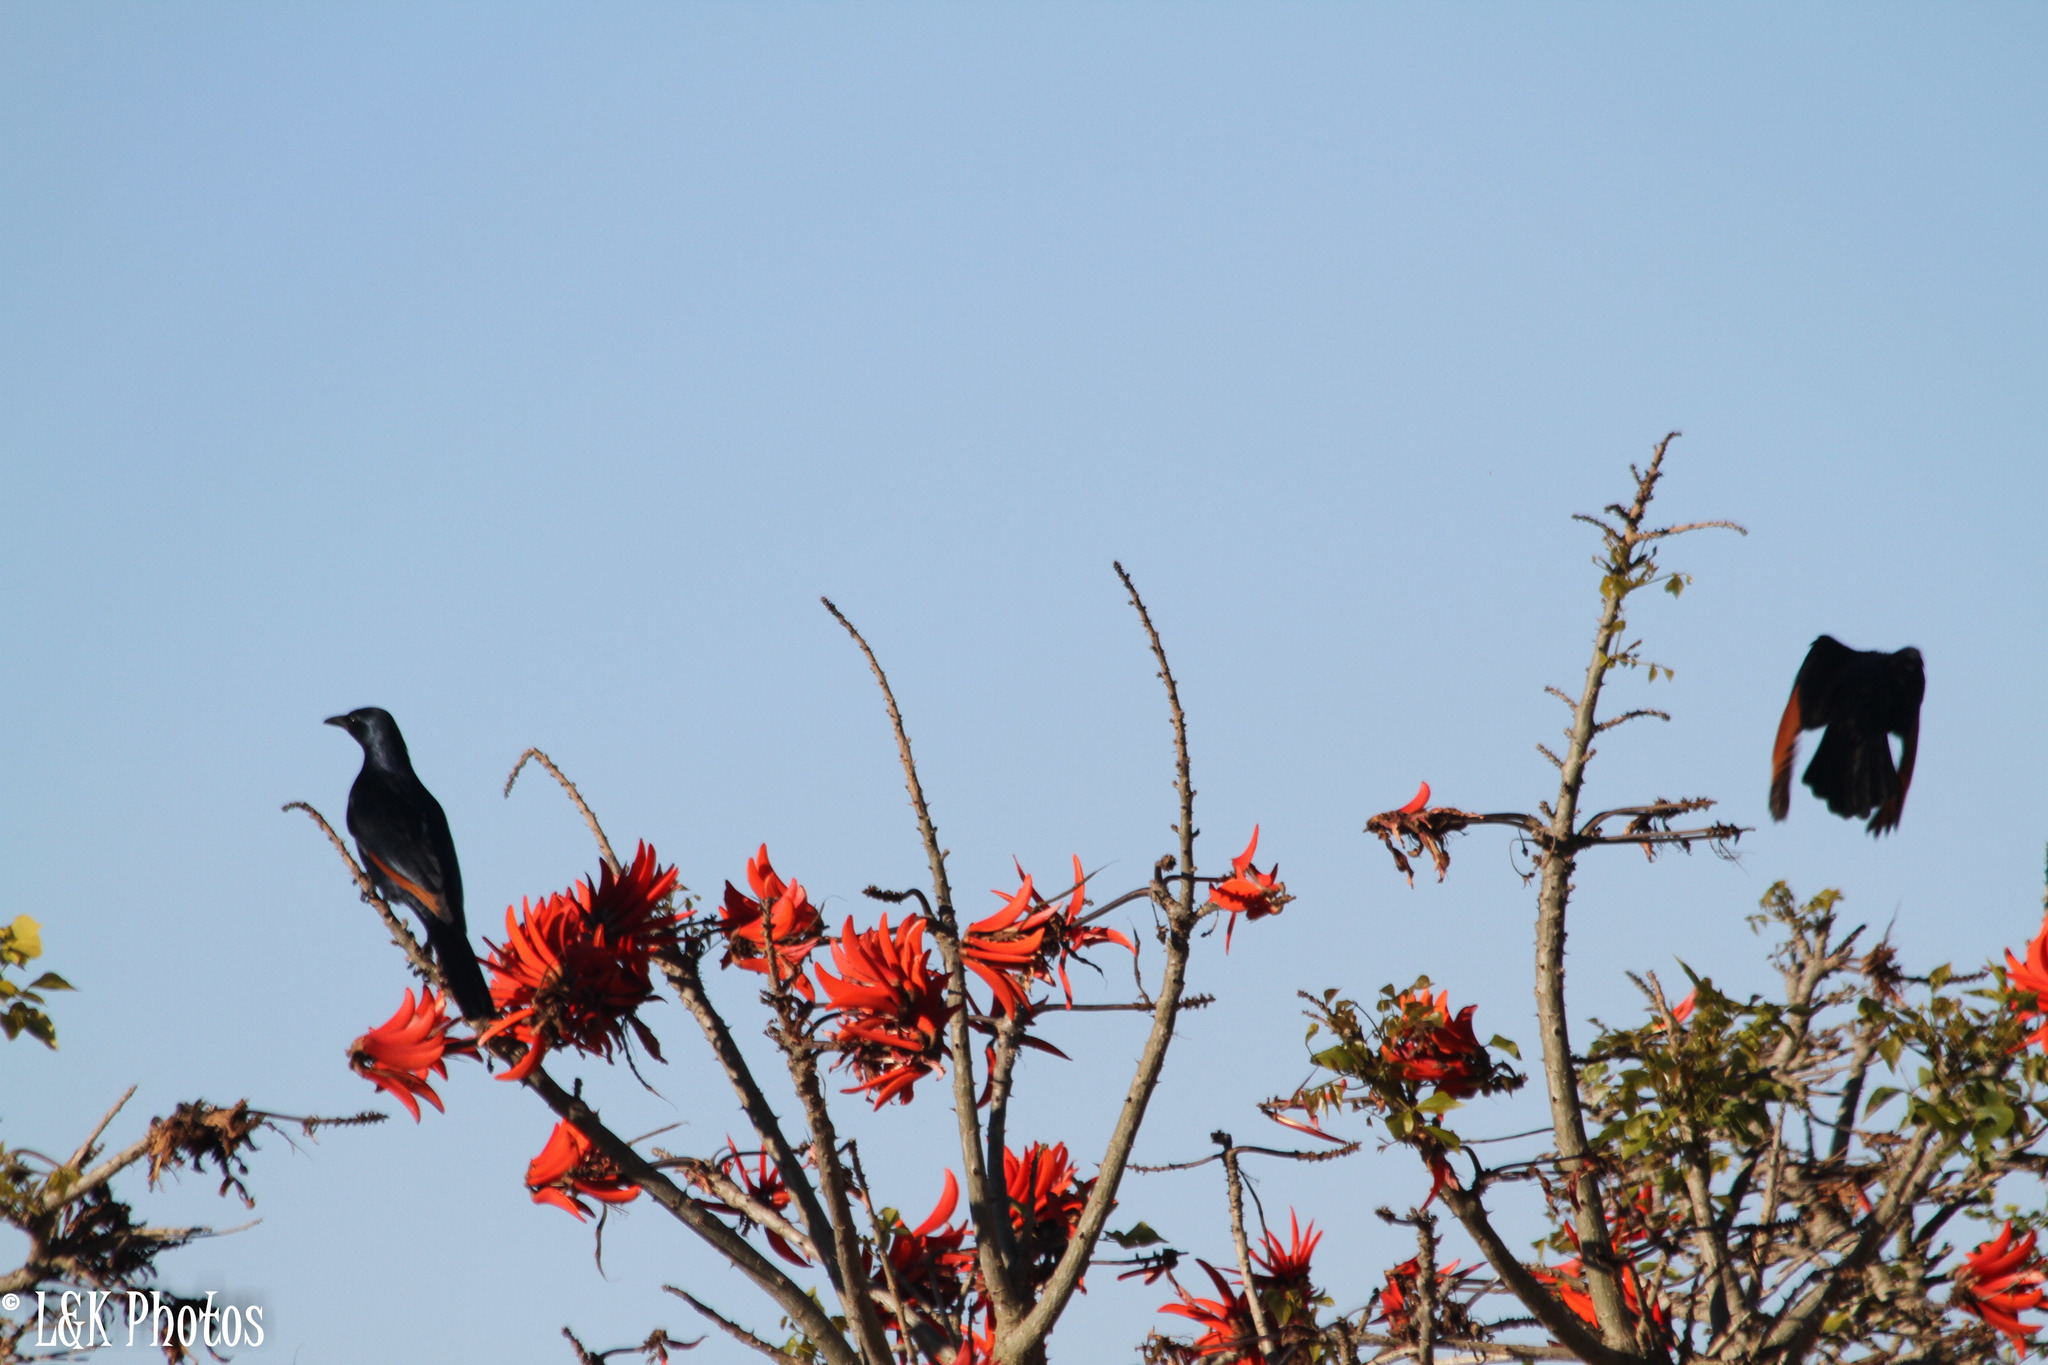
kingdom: Animalia
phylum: Chordata
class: Aves
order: Passeriformes
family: Sturnidae
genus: Onychognathus
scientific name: Onychognathus morio
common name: Red-winged starling
